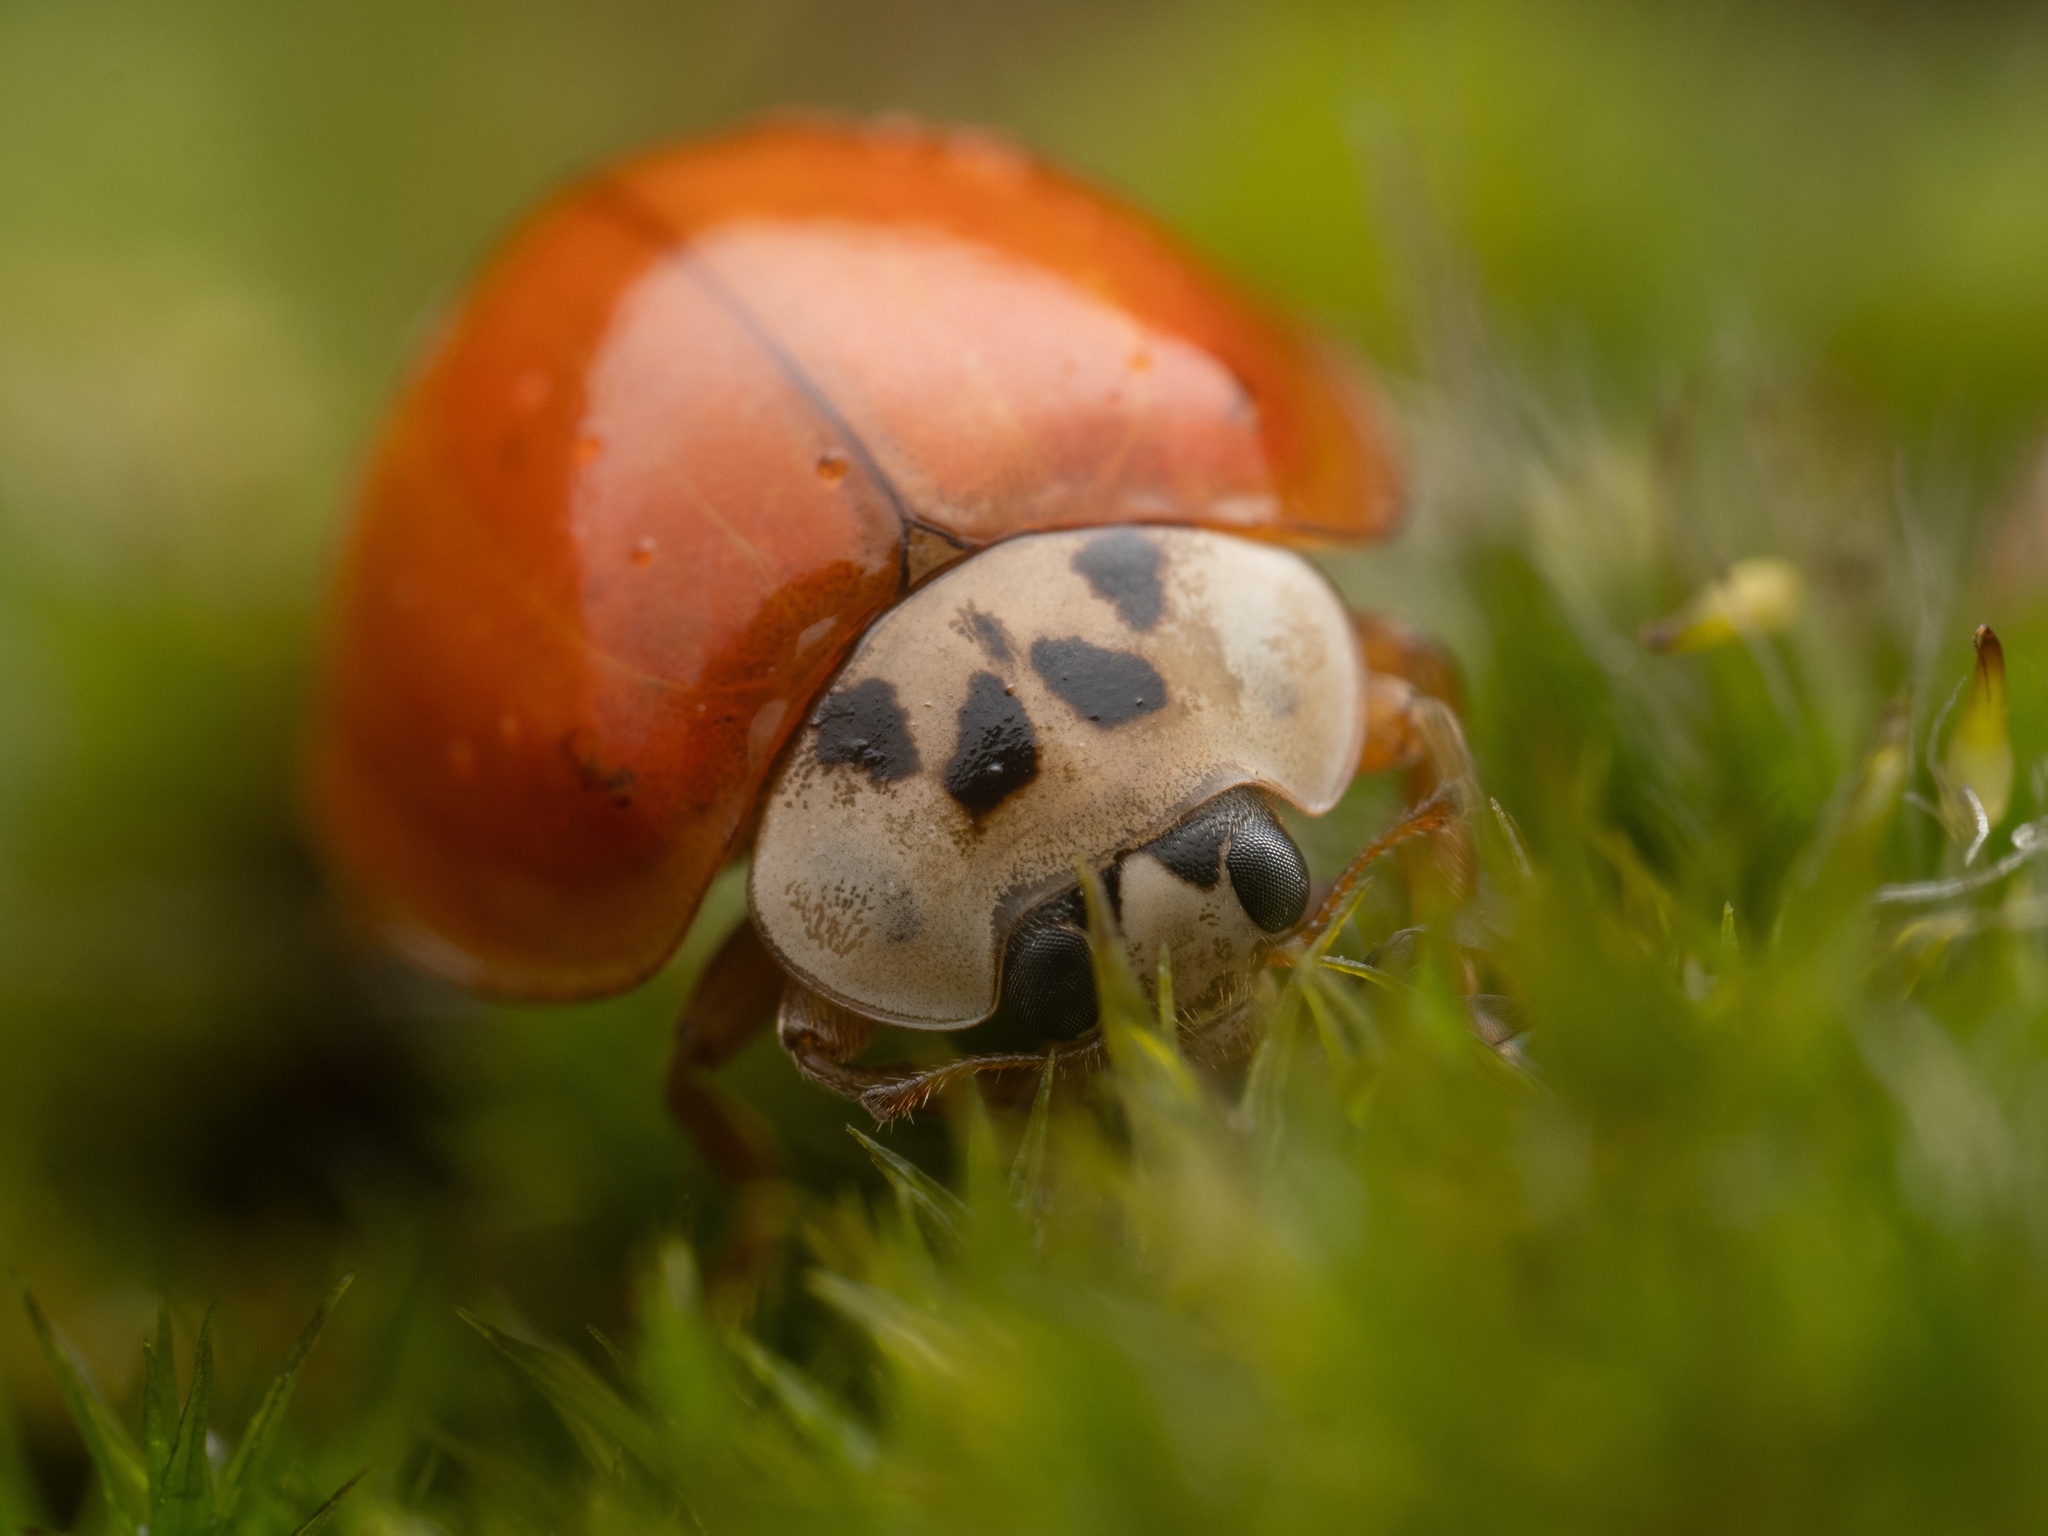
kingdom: Animalia
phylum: Arthropoda
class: Insecta
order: Coleoptera
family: Coccinellidae
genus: Harmonia
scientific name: Harmonia axyridis
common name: Harlequin ladybird
